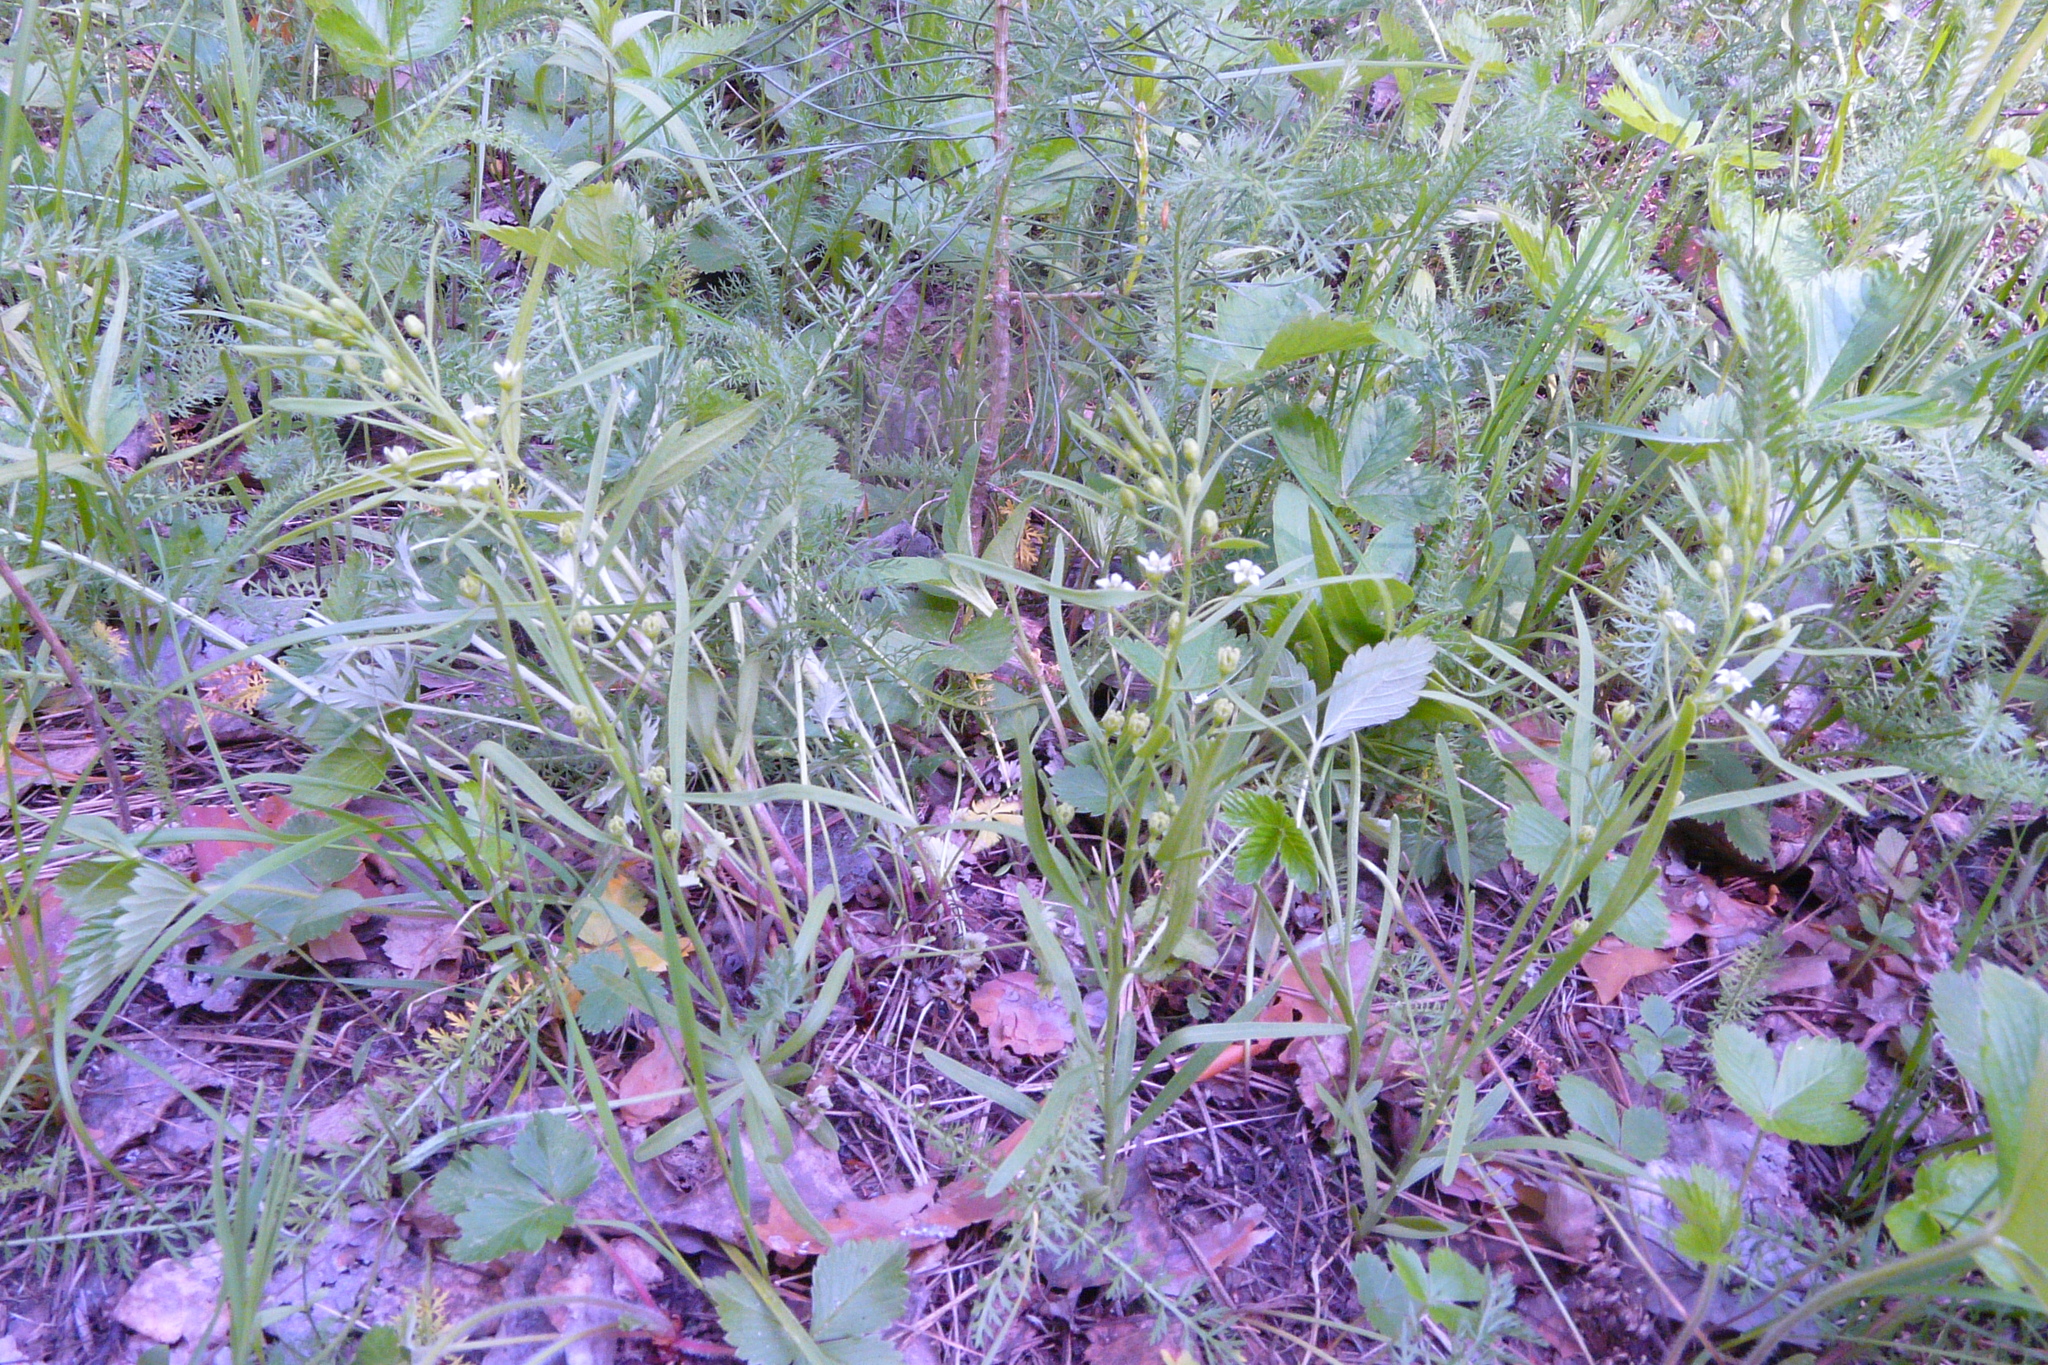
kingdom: Plantae
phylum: Tracheophyta
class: Magnoliopsida
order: Santalales
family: Thesiaceae
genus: Thesium
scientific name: Thesium ebracteatum
